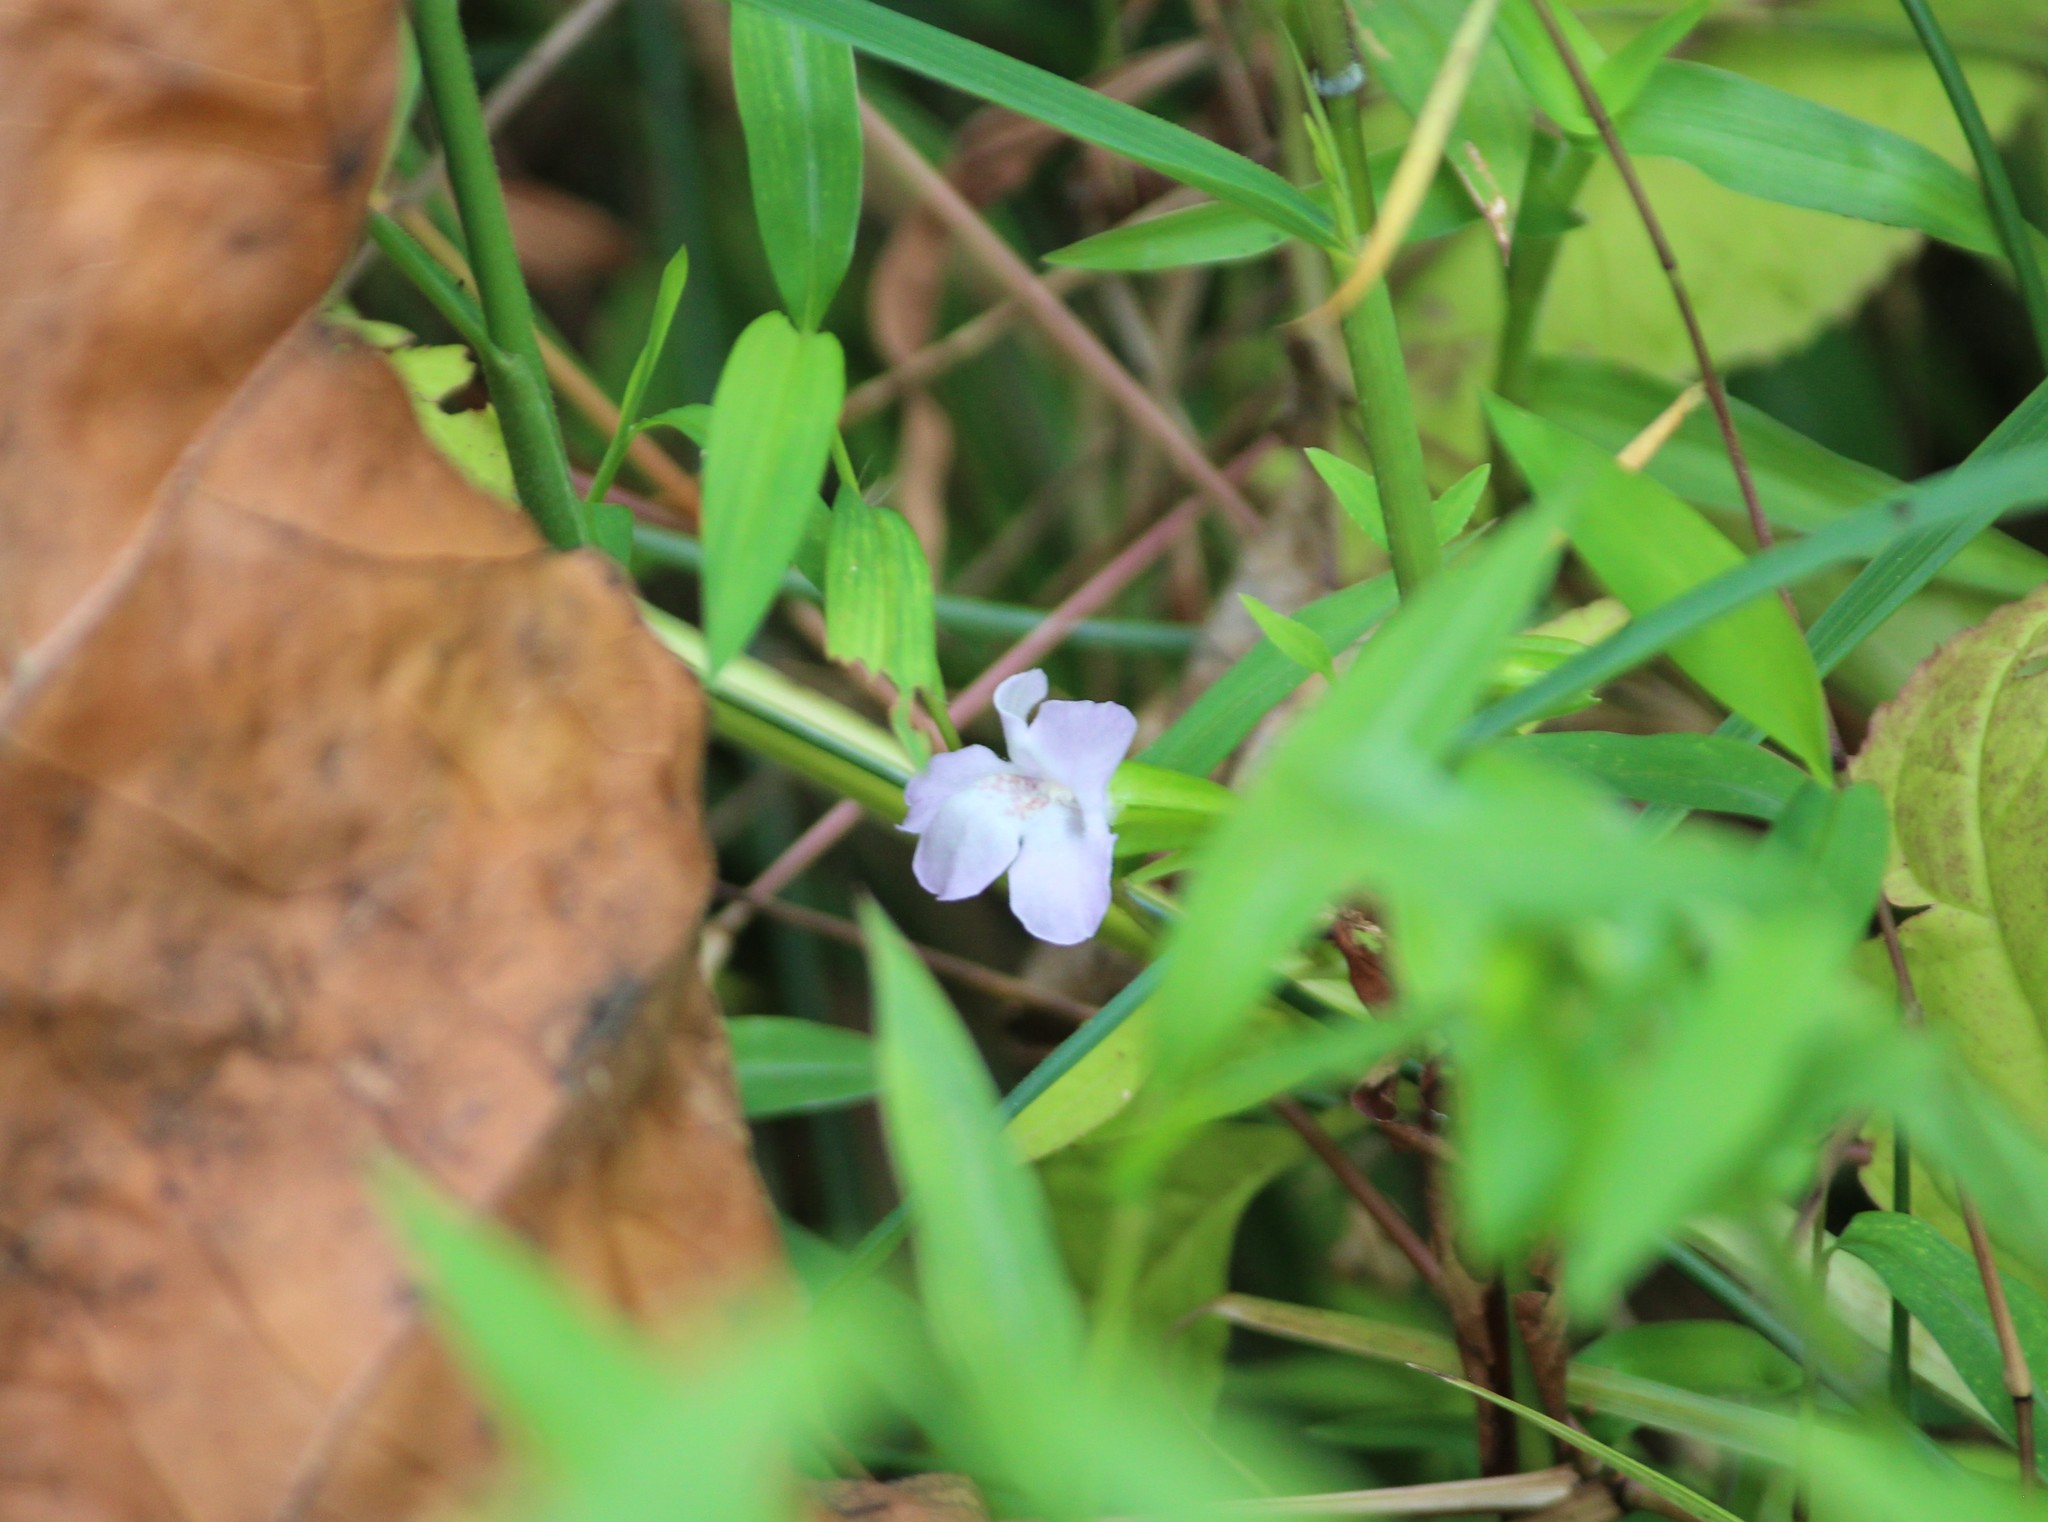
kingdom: Plantae
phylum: Tracheophyta
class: Magnoliopsida
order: Lamiales
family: Phrymaceae
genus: Mimulus
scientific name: Mimulus alatus
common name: Sharp-wing monkey-flower
